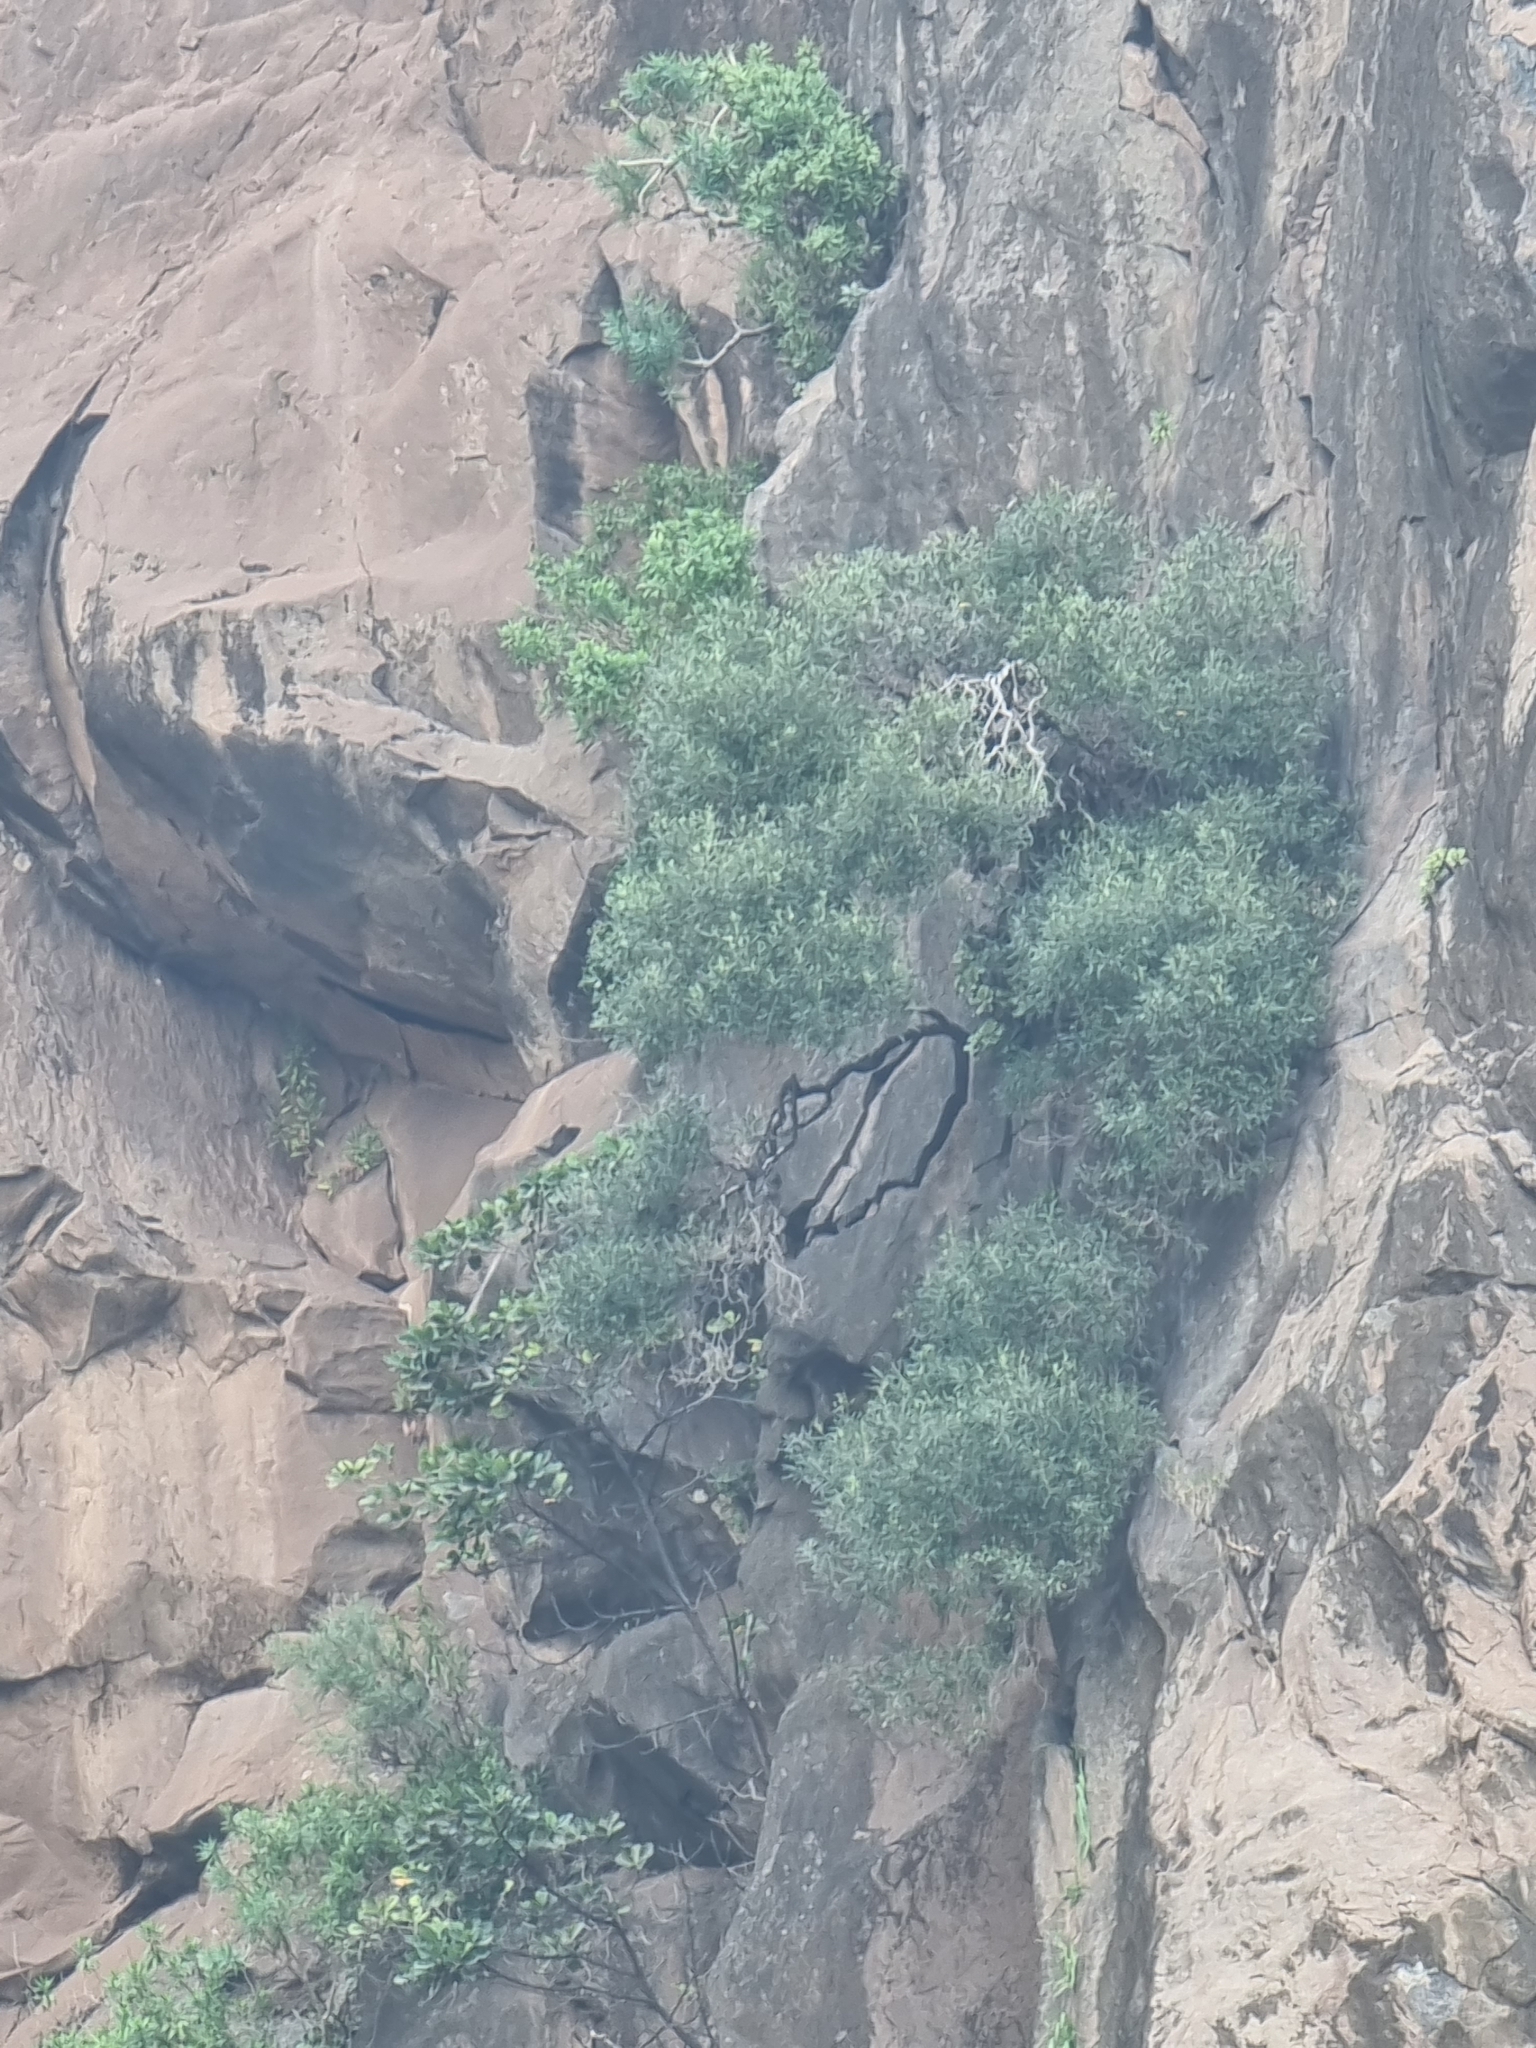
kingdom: Plantae
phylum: Tracheophyta
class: Magnoliopsida
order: Lamiales
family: Oleaceae
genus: Olea
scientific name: Olea europaea
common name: Olive
